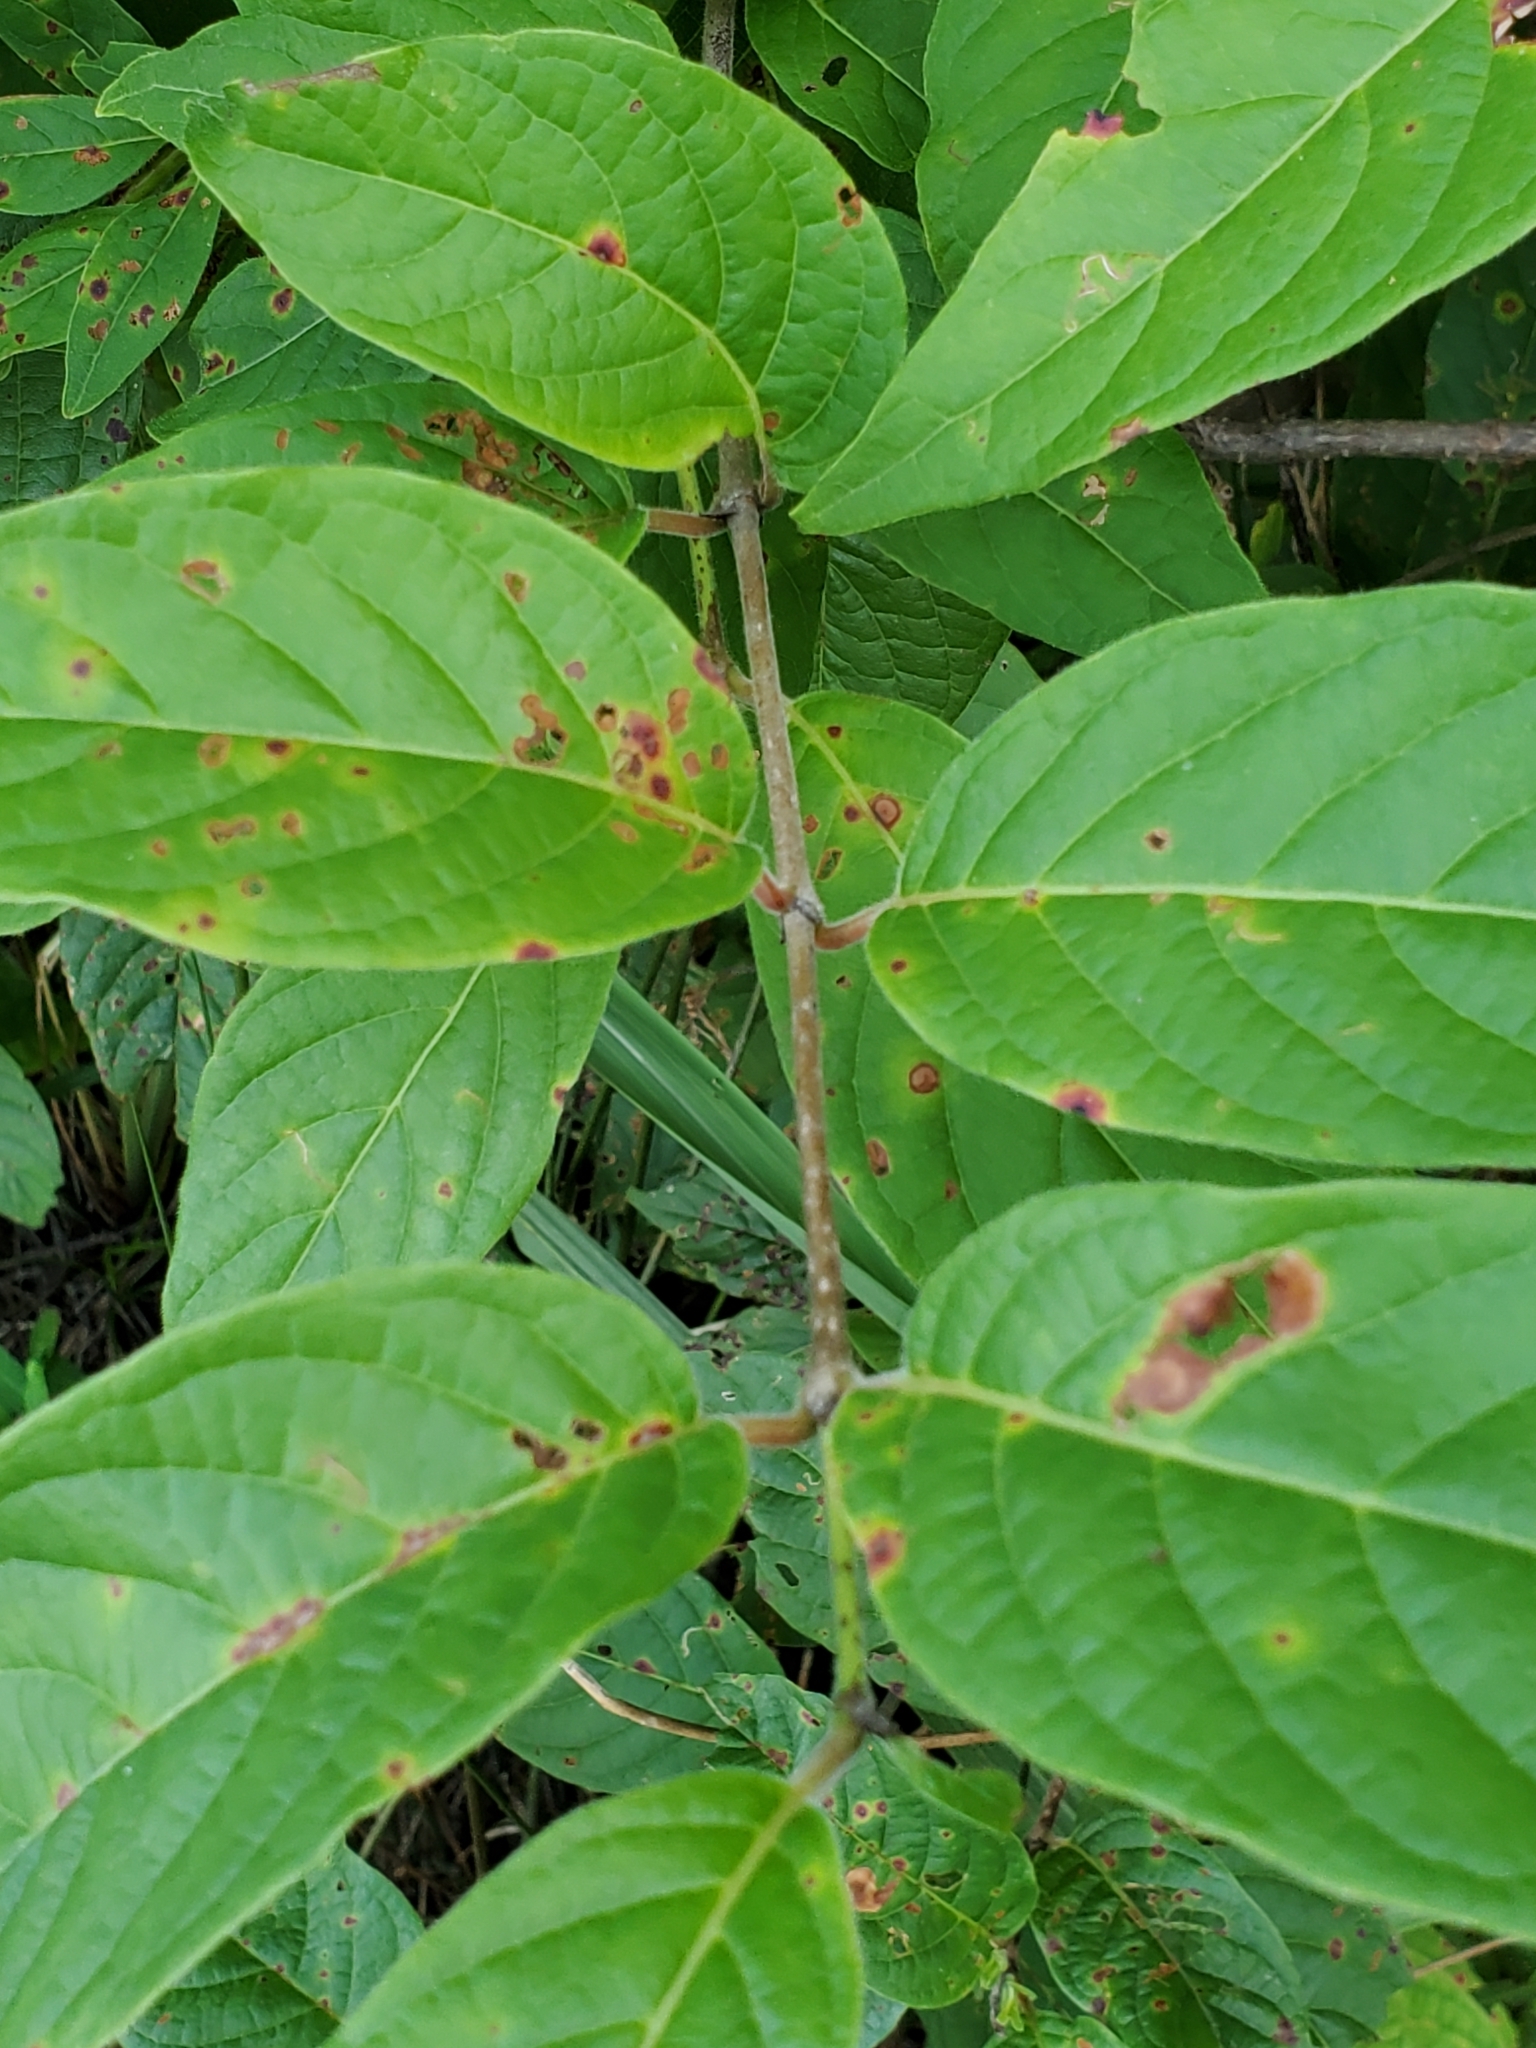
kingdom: Plantae
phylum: Tracheophyta
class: Magnoliopsida
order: Gentianales
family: Rubiaceae
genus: Cephalanthus
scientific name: Cephalanthus occidentalis
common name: Button-willow
